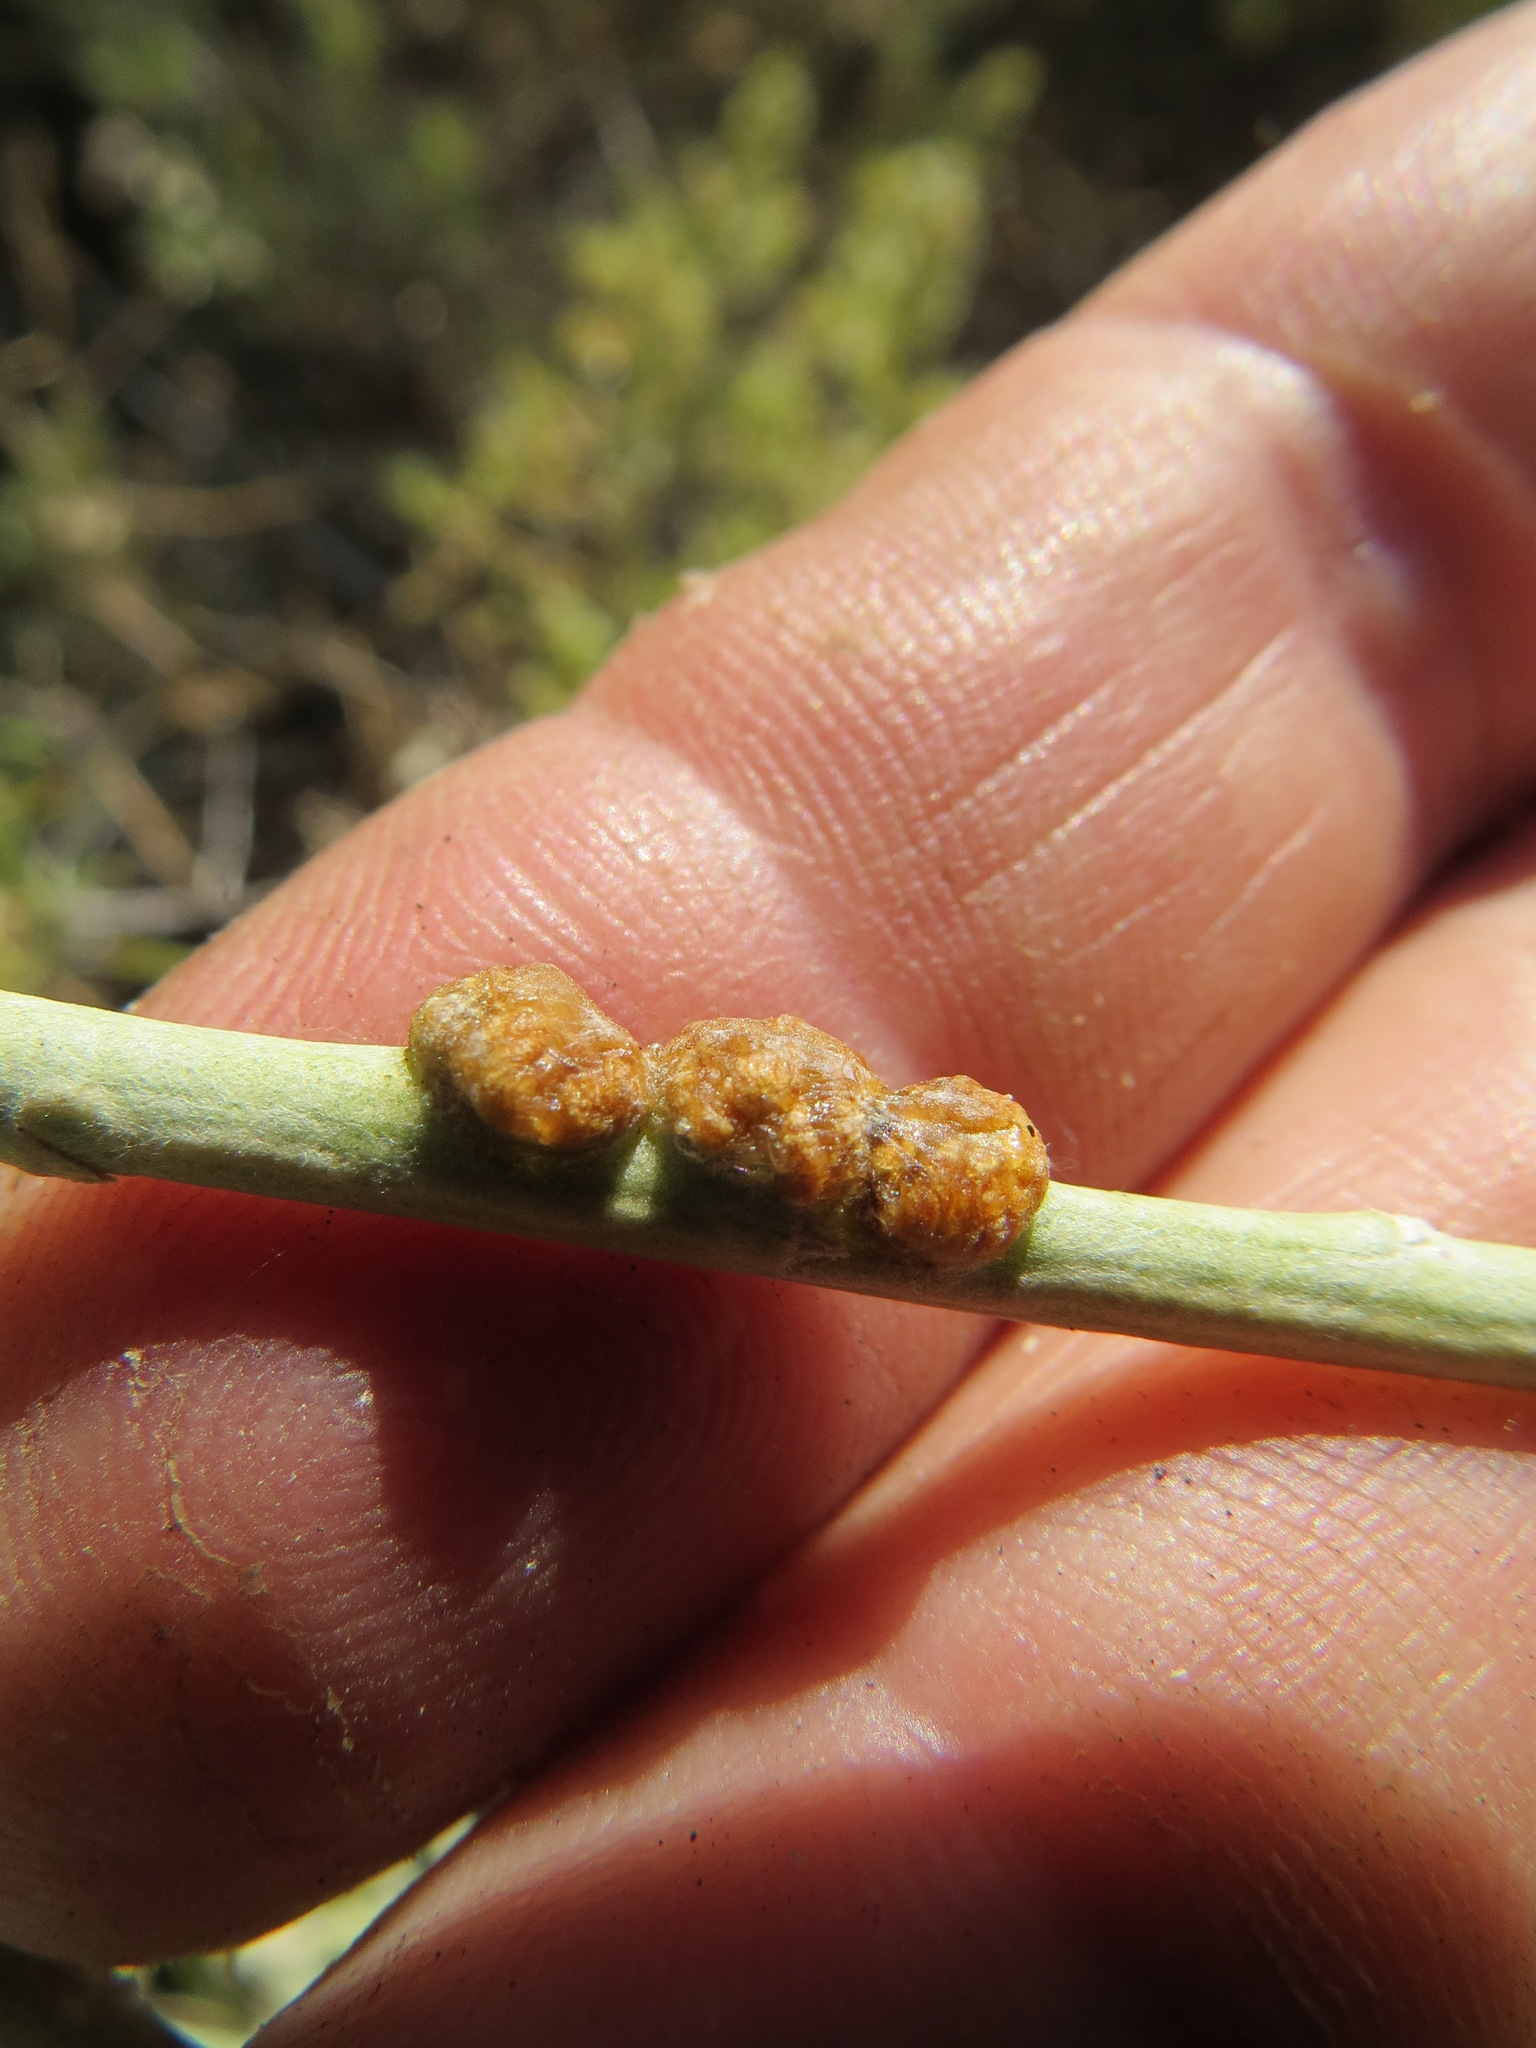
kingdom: Animalia
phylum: Arthropoda
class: Insecta
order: Diptera
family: Cecidomyiidae
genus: Rhopalomyia
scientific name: Rhopalomyia glutinosa
